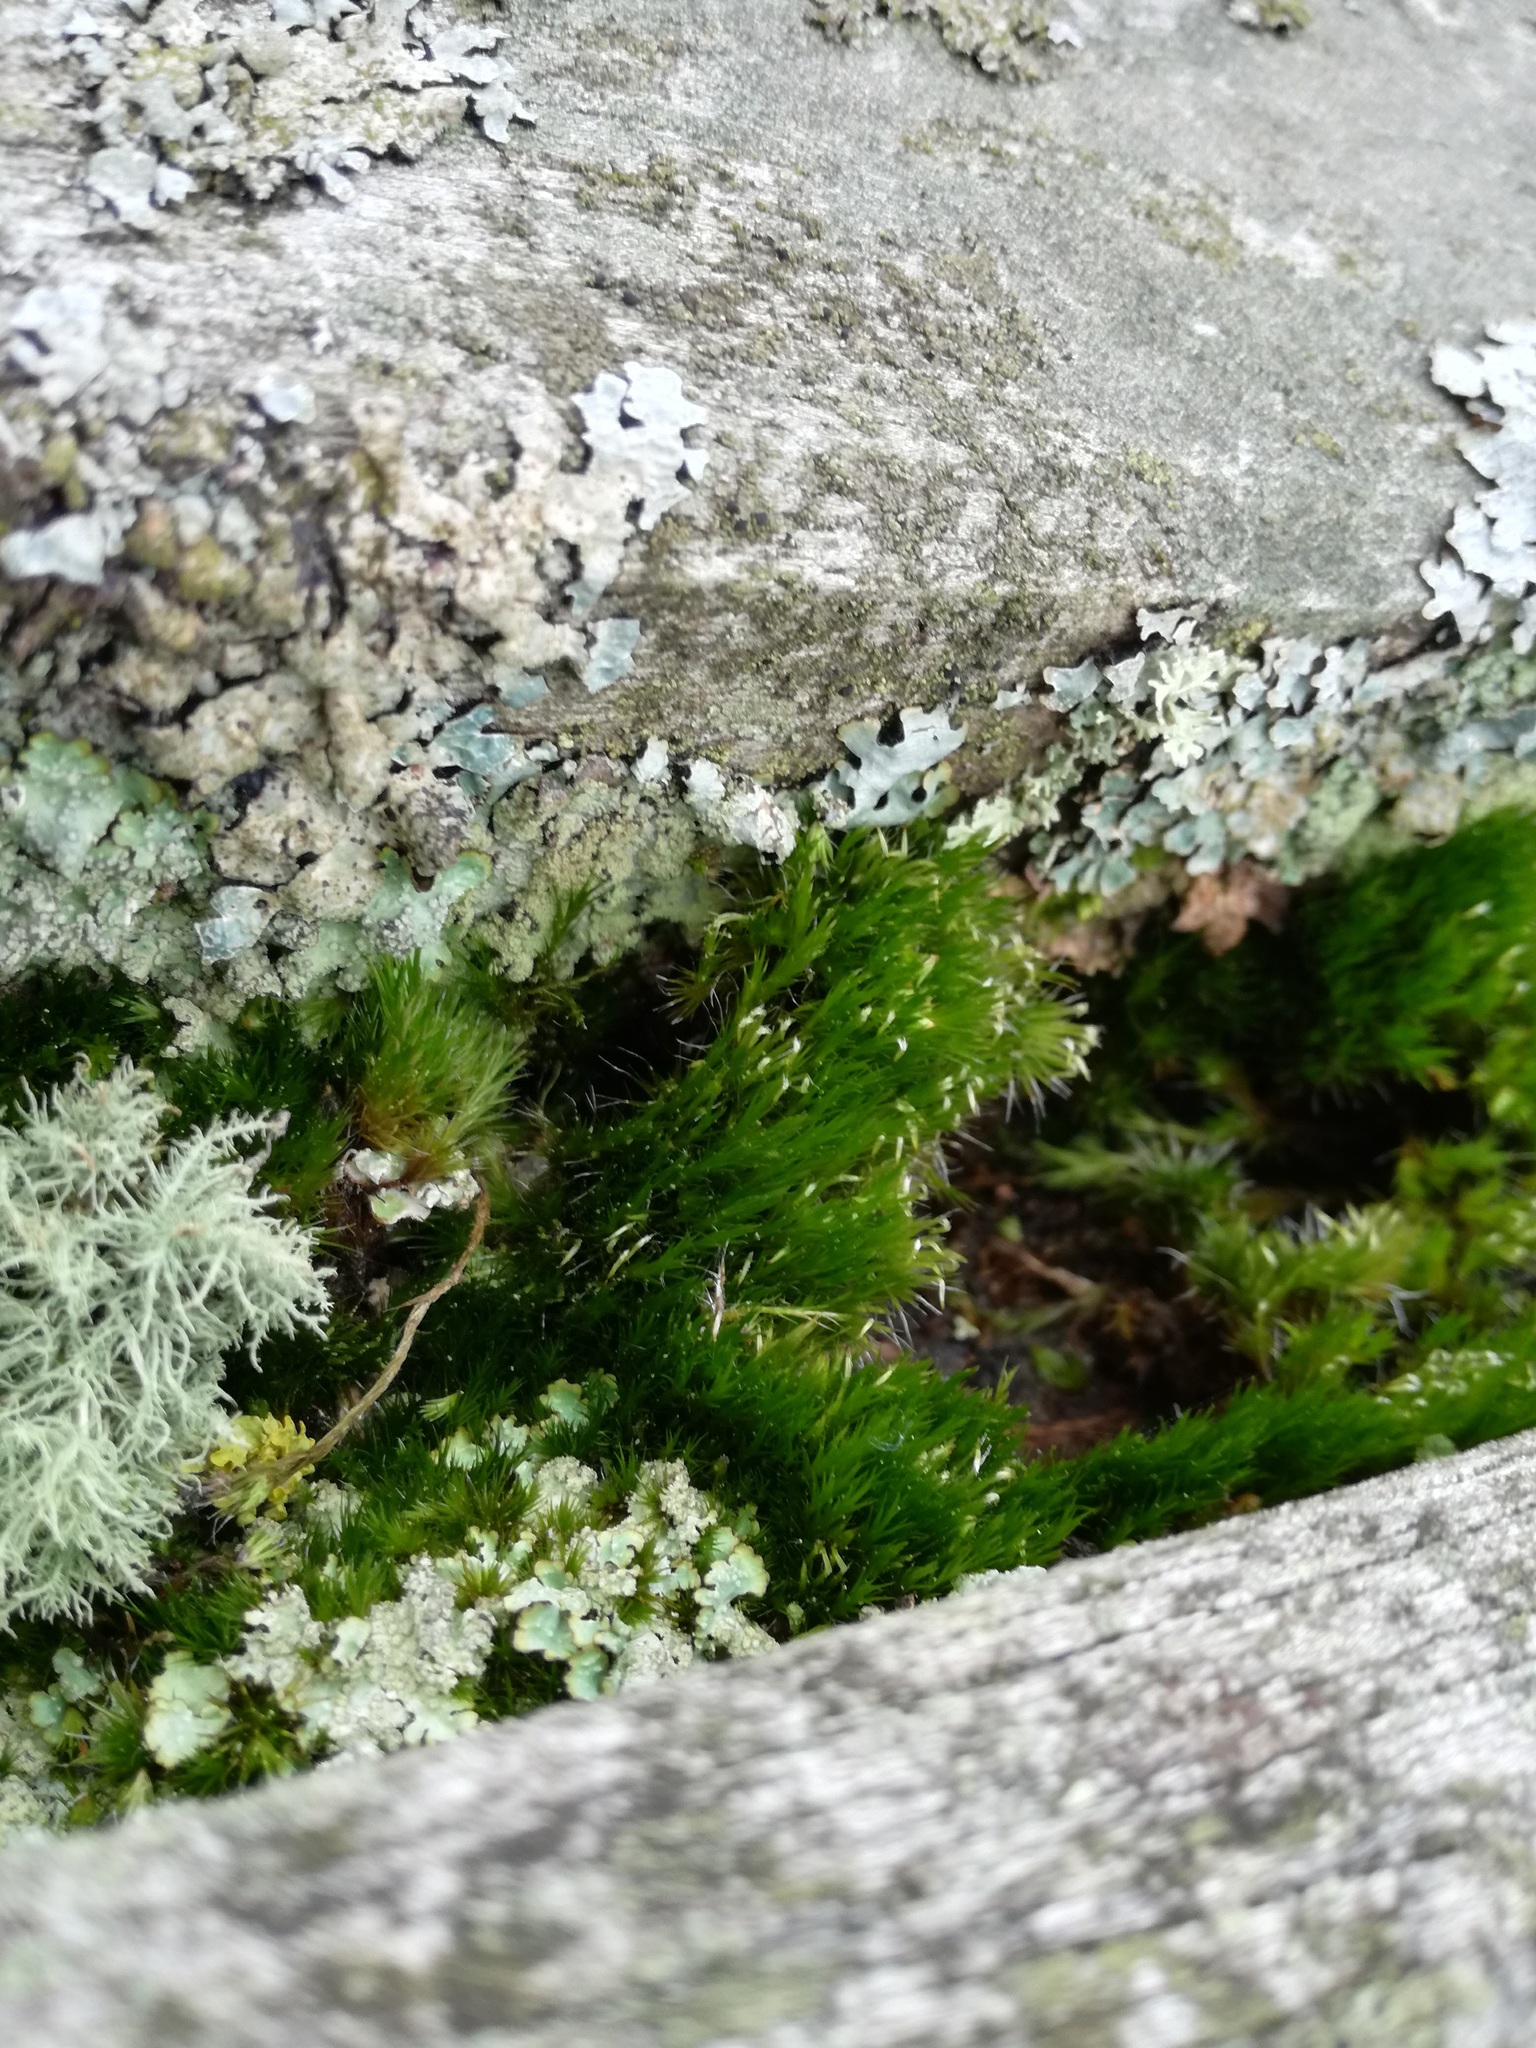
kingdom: Plantae
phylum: Bryophyta
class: Bryopsida
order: Dicranales
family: Leucobryaceae
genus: Campylopus
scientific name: Campylopus introflexus
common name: Heath star moss
